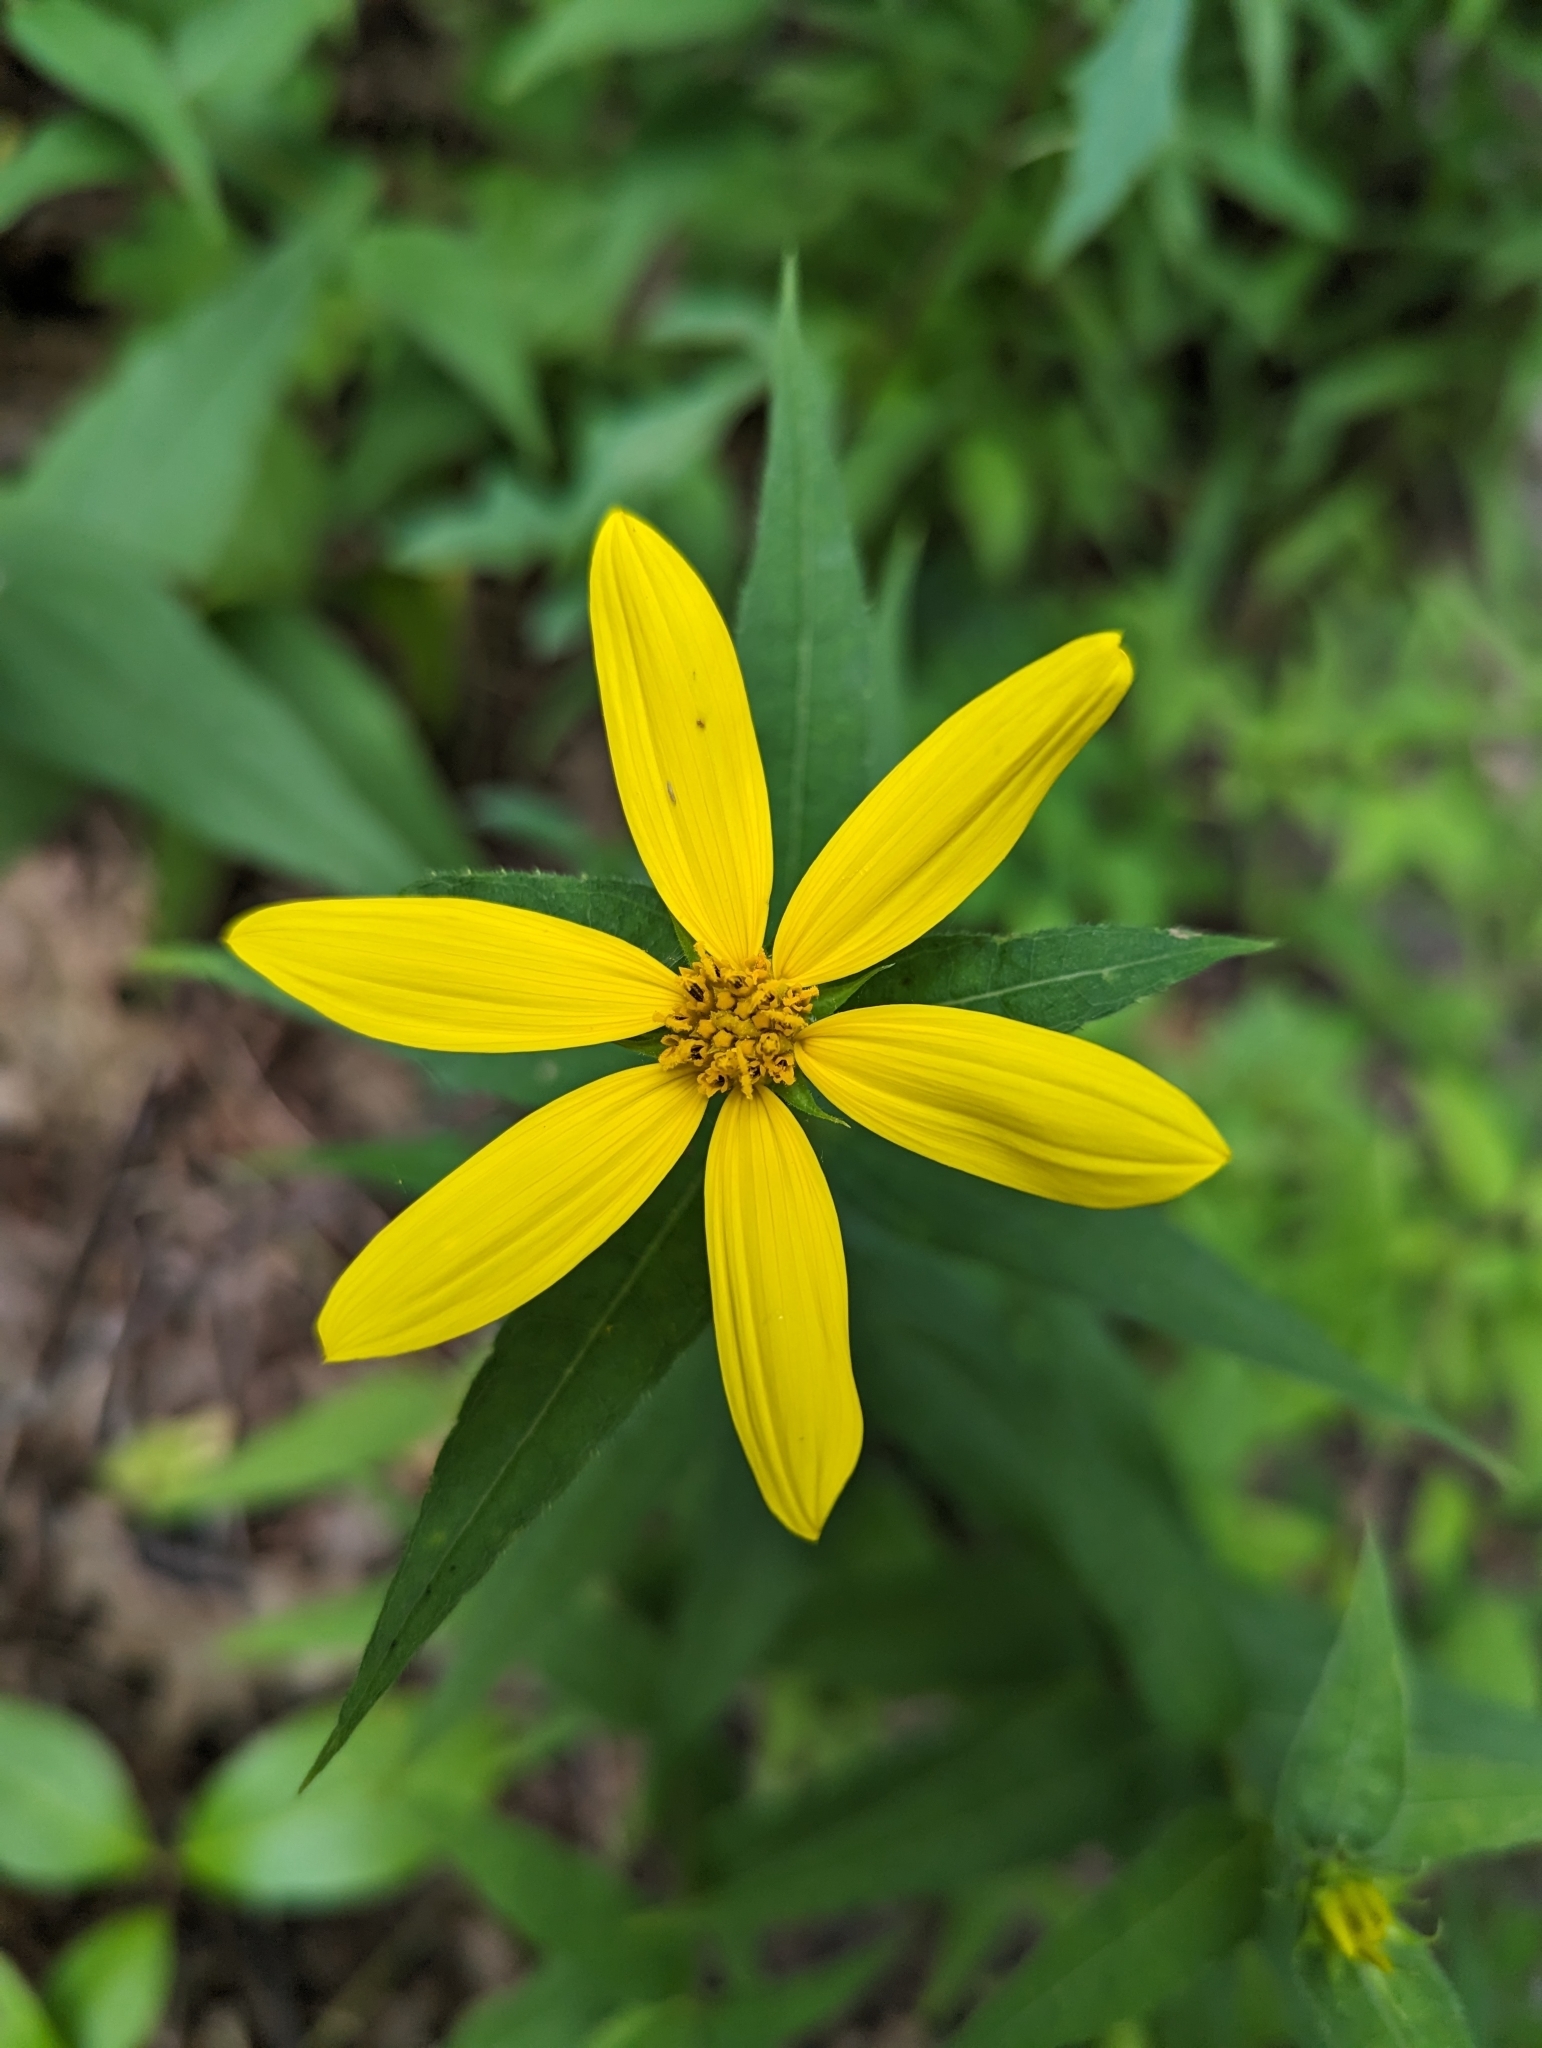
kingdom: Plantae
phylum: Tracheophyta
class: Magnoliopsida
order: Asterales
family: Asteraceae
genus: Helianthus
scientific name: Helianthus divaricatus
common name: Divergent sunflower
